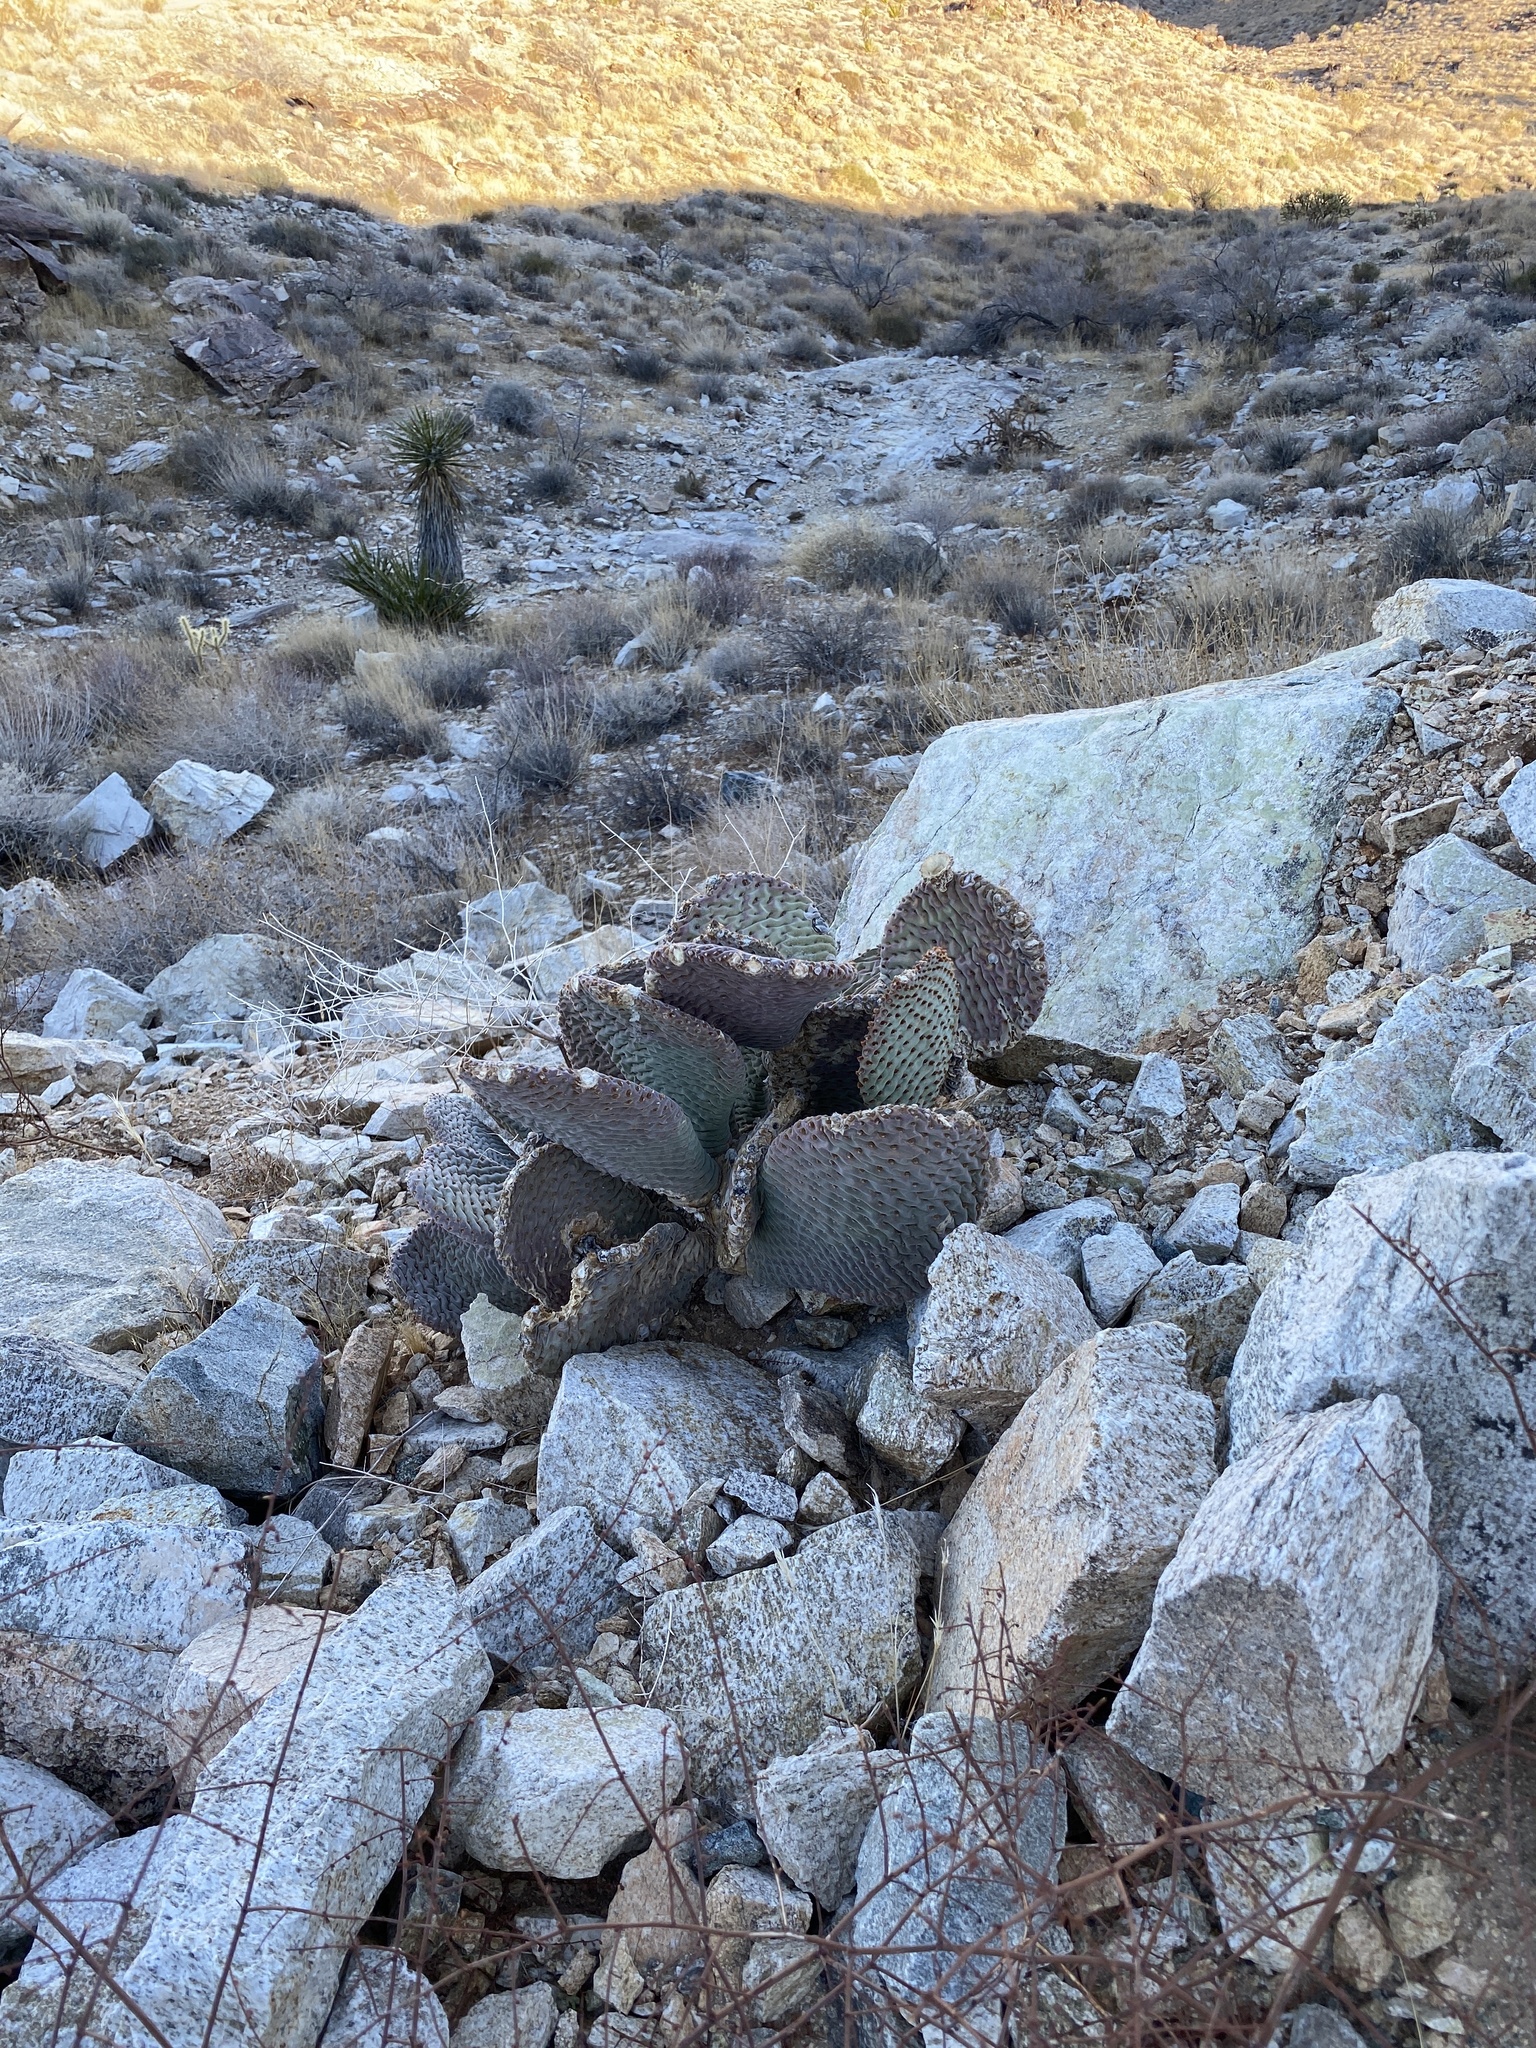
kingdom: Plantae
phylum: Tracheophyta
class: Magnoliopsida
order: Caryophyllales
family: Cactaceae
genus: Opuntia
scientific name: Opuntia basilaris
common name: Beavertail prickly-pear
